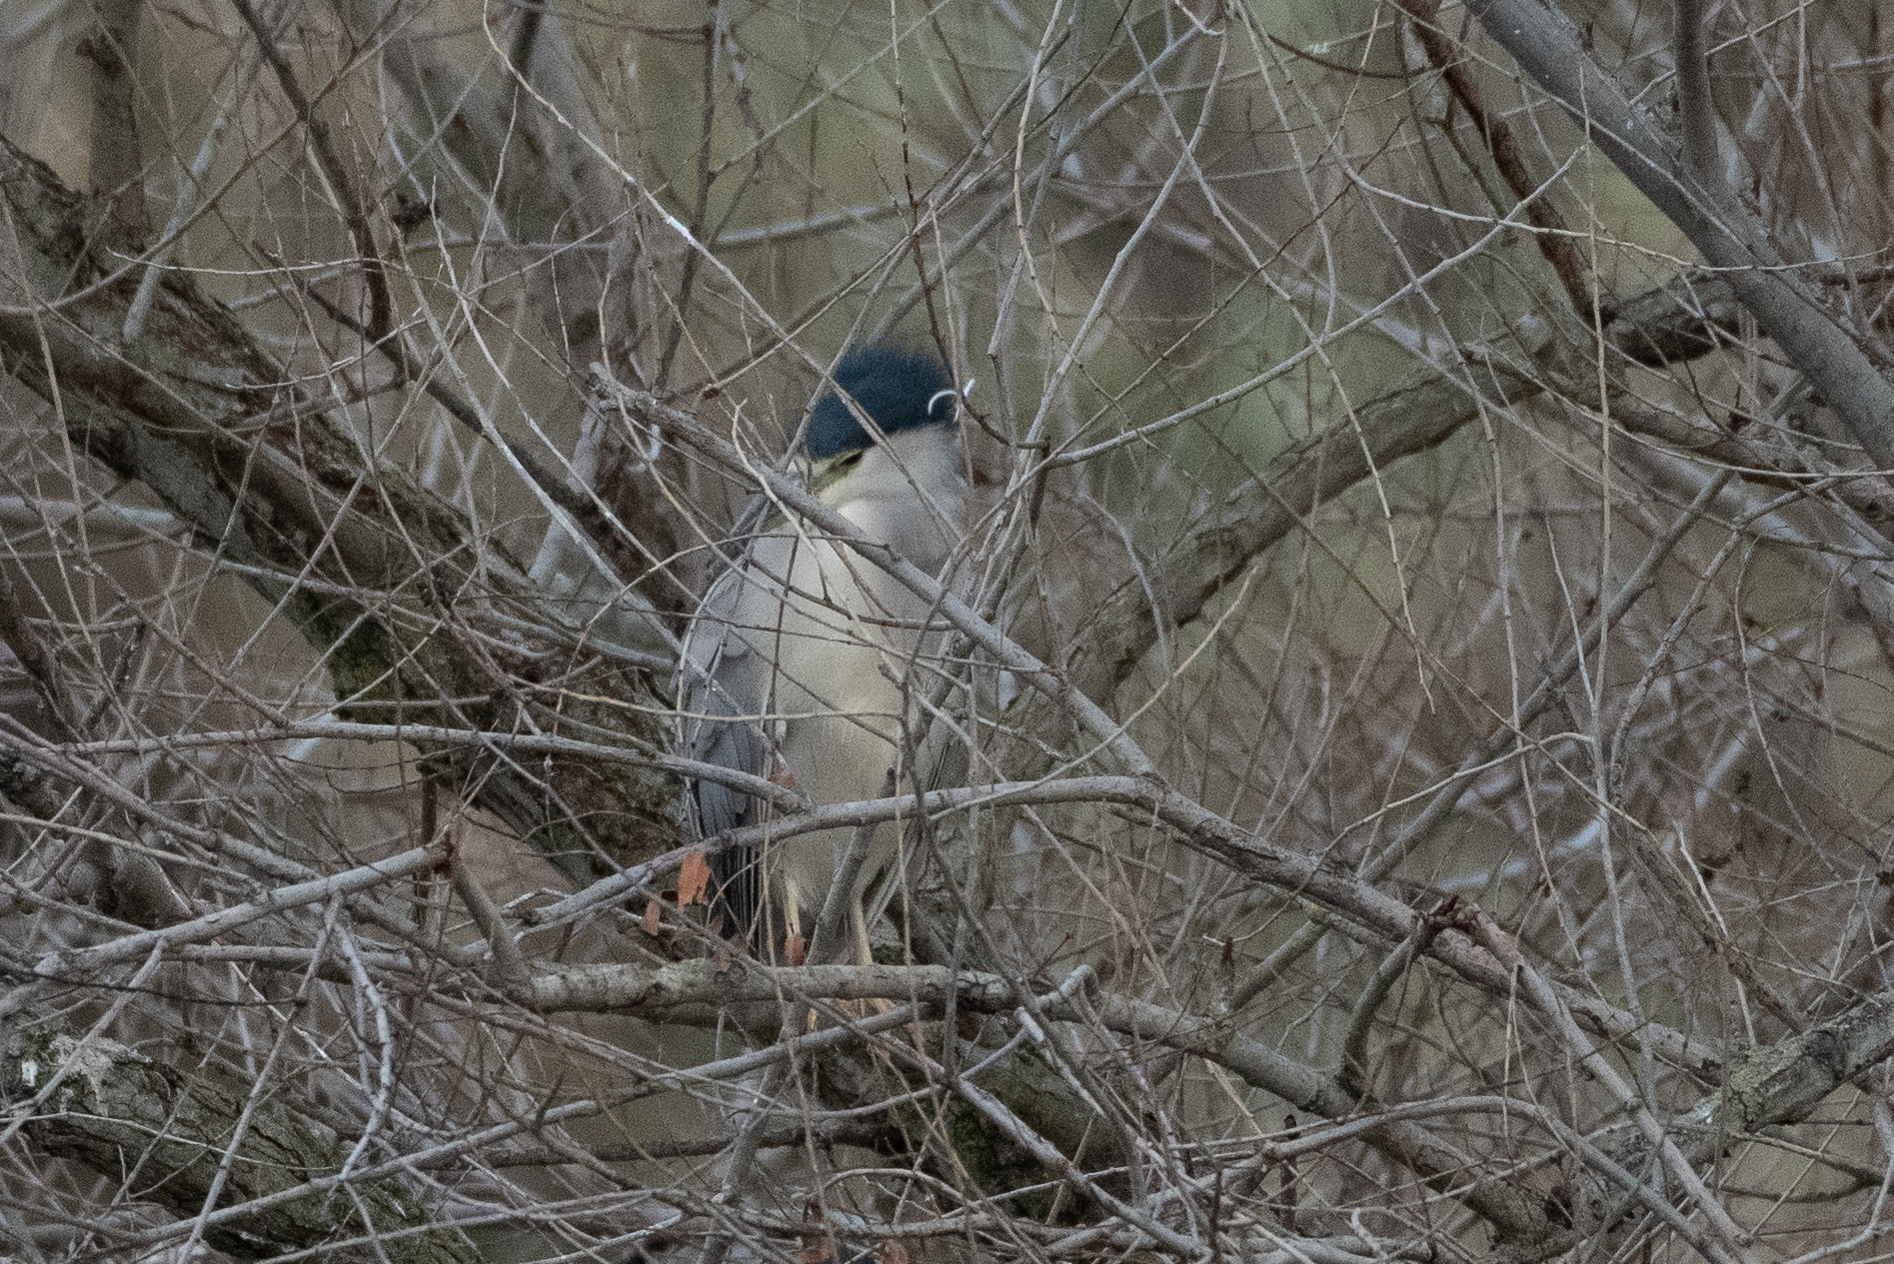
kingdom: Animalia
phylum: Chordata
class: Aves
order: Pelecaniformes
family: Ardeidae
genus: Nycticorax
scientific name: Nycticorax nycticorax
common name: Black-crowned night heron
